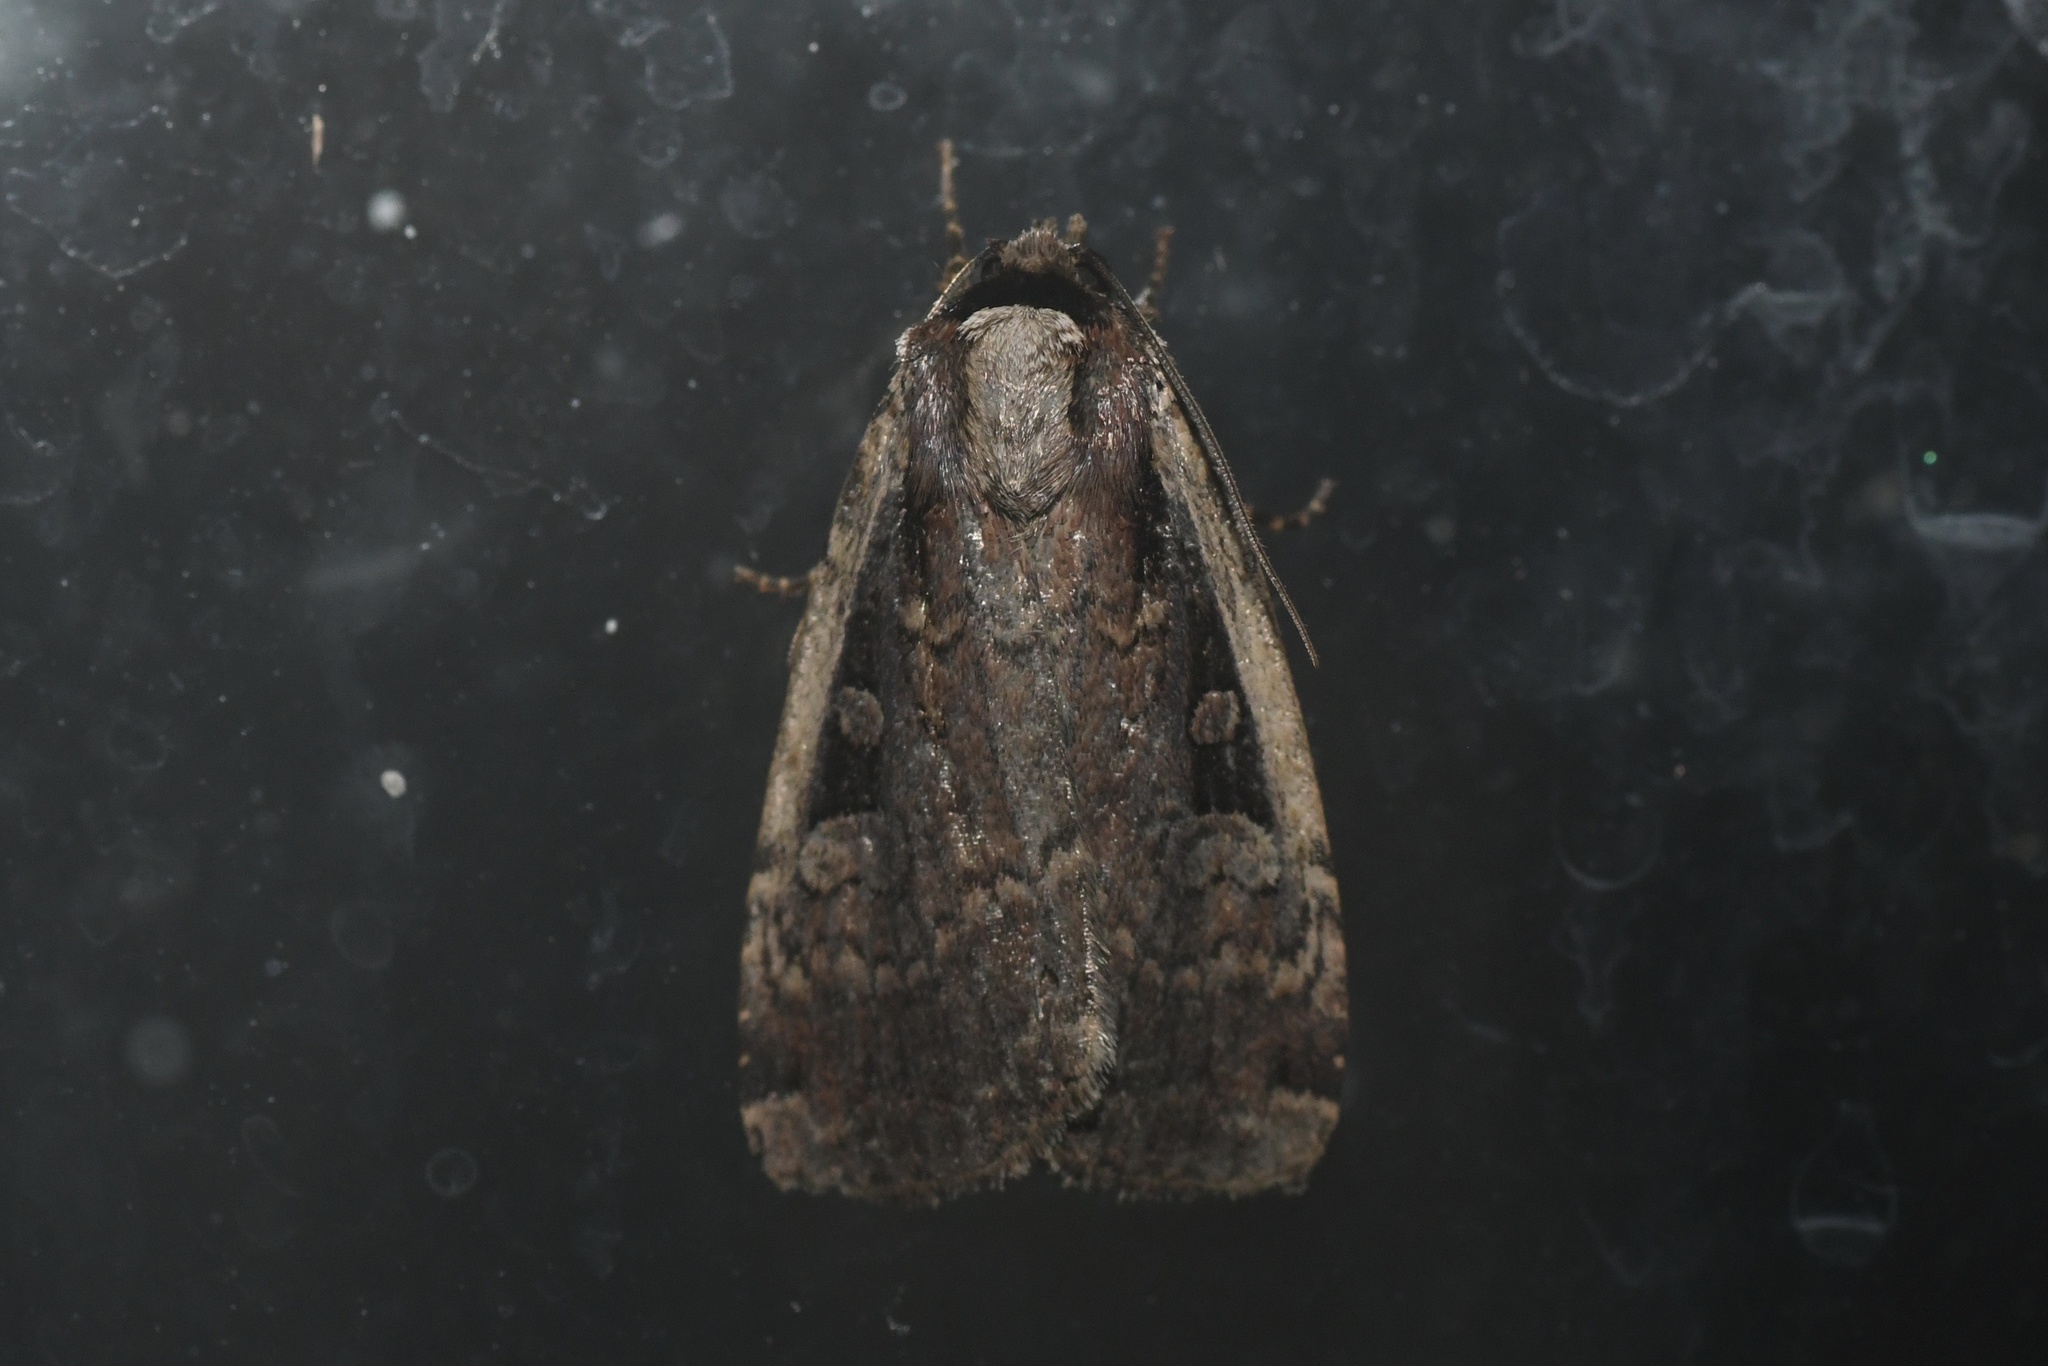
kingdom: Animalia
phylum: Arthropoda
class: Insecta
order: Lepidoptera
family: Noctuidae
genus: Eueretagrotis
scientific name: Eueretagrotis sigmoides
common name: Sigmoid dart
